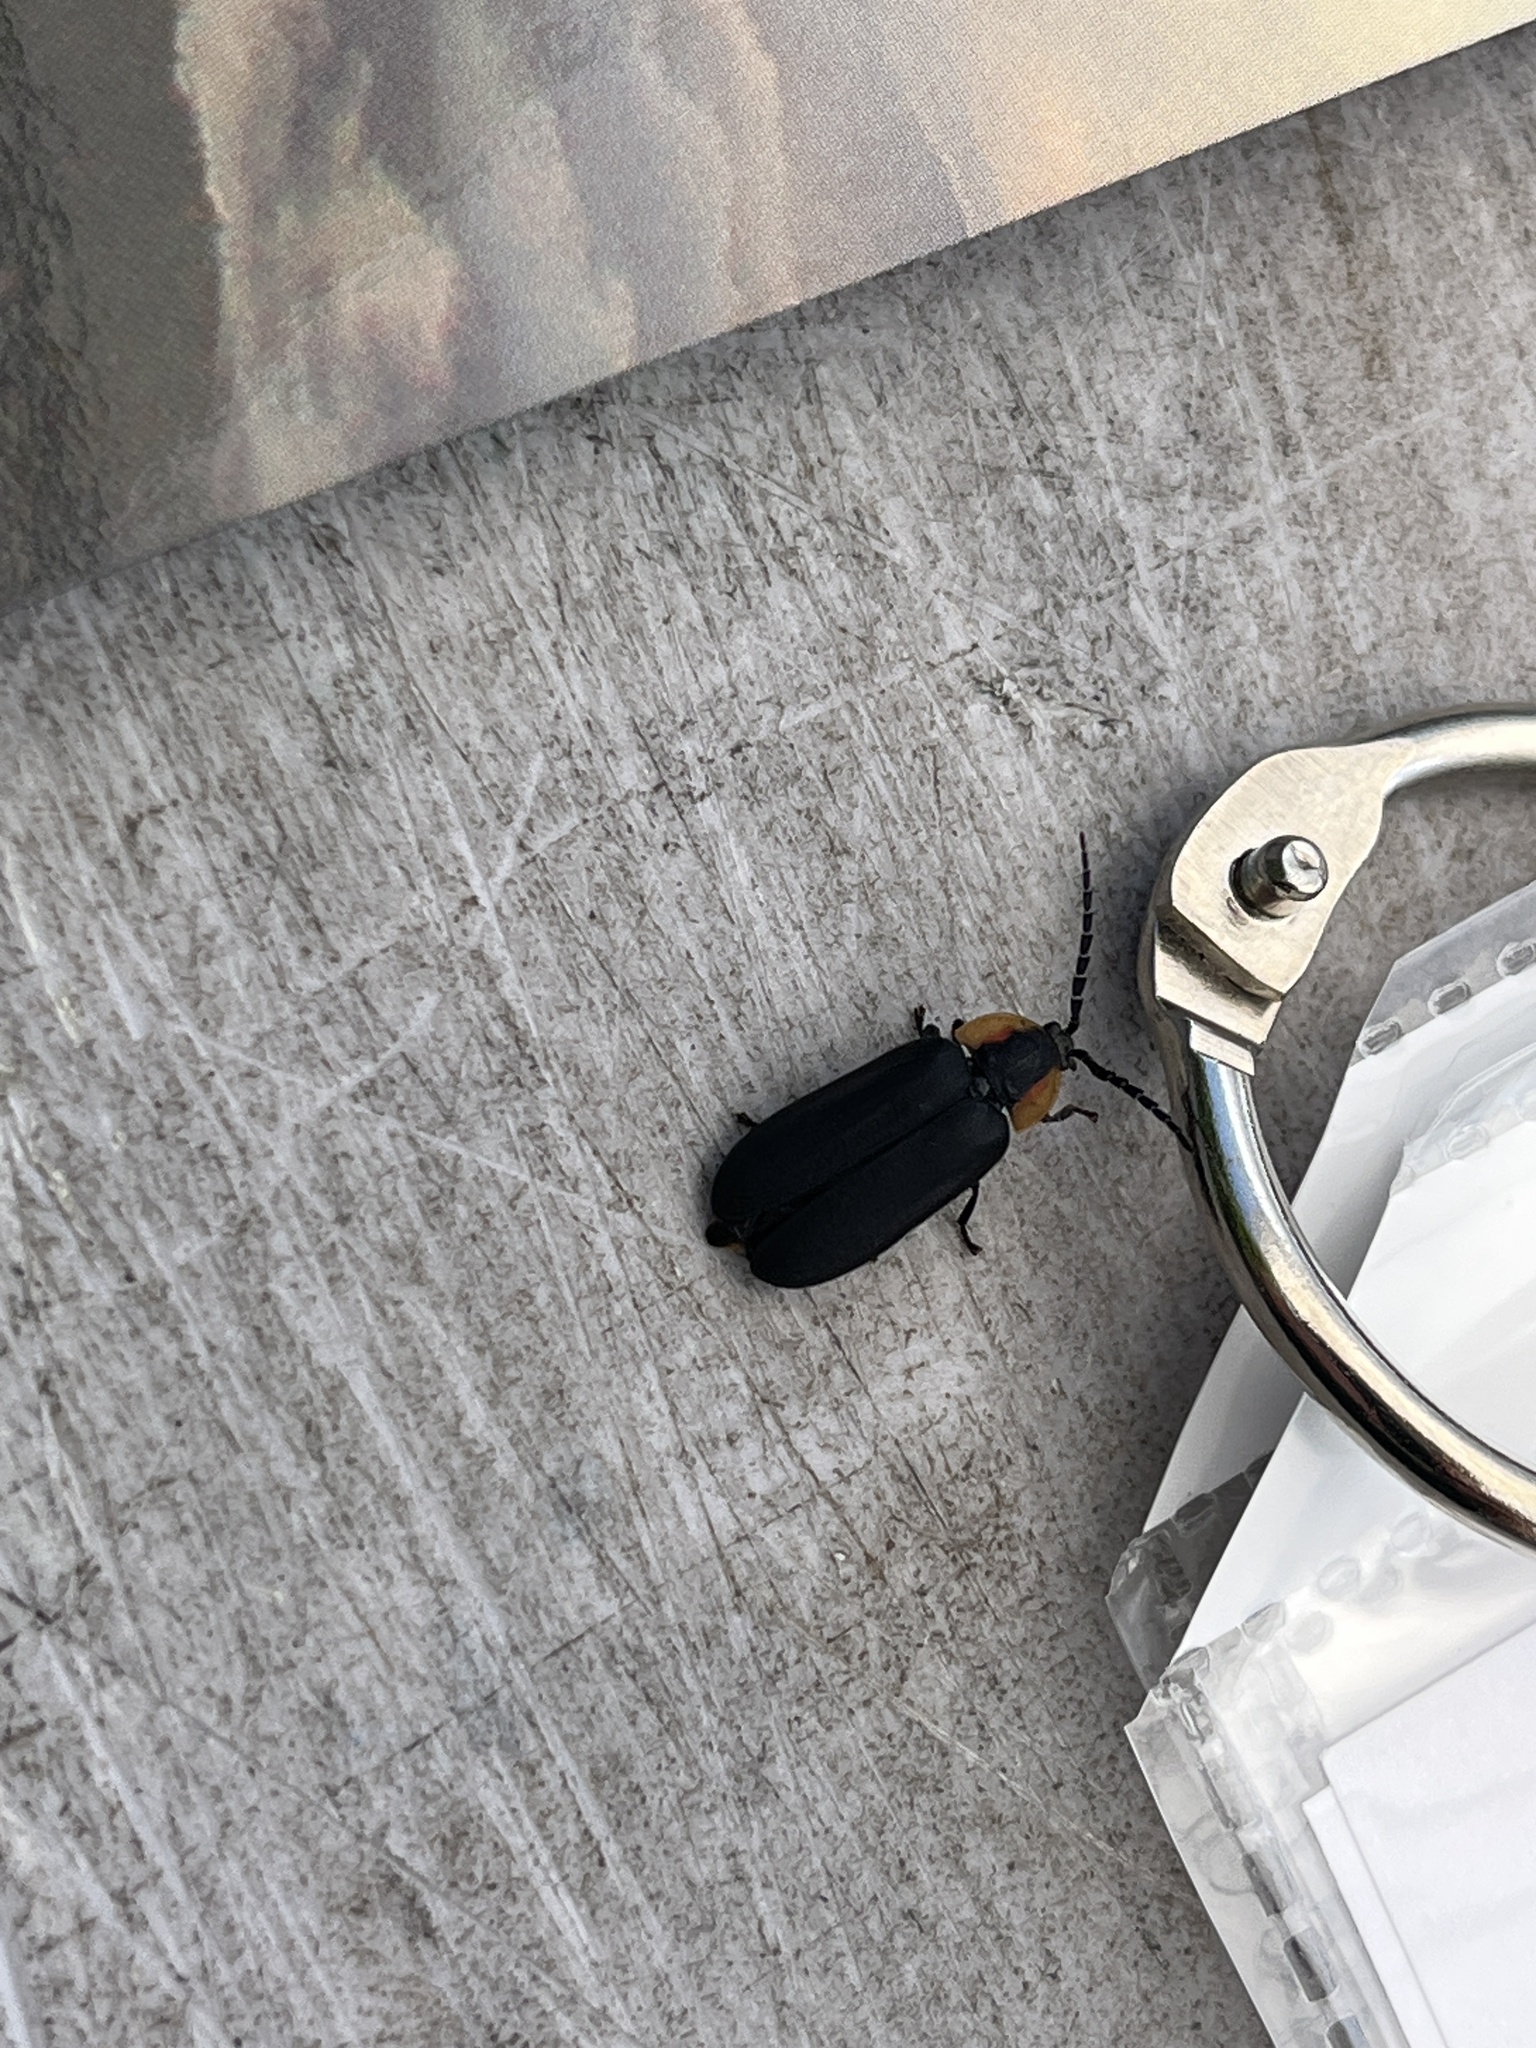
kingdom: Animalia
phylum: Arthropoda
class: Insecta
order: Coleoptera
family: Lampyridae
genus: Lucidota
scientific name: Lucidota atra
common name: Black firefly
